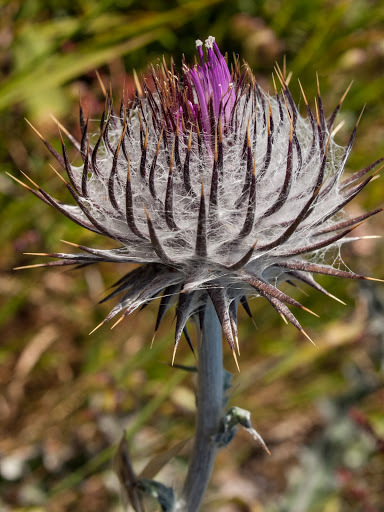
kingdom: Plantae
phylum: Tracheophyta
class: Magnoliopsida
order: Asterales
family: Asteraceae
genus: Cirsium
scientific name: Cirsium occidentale
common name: Western thistle
